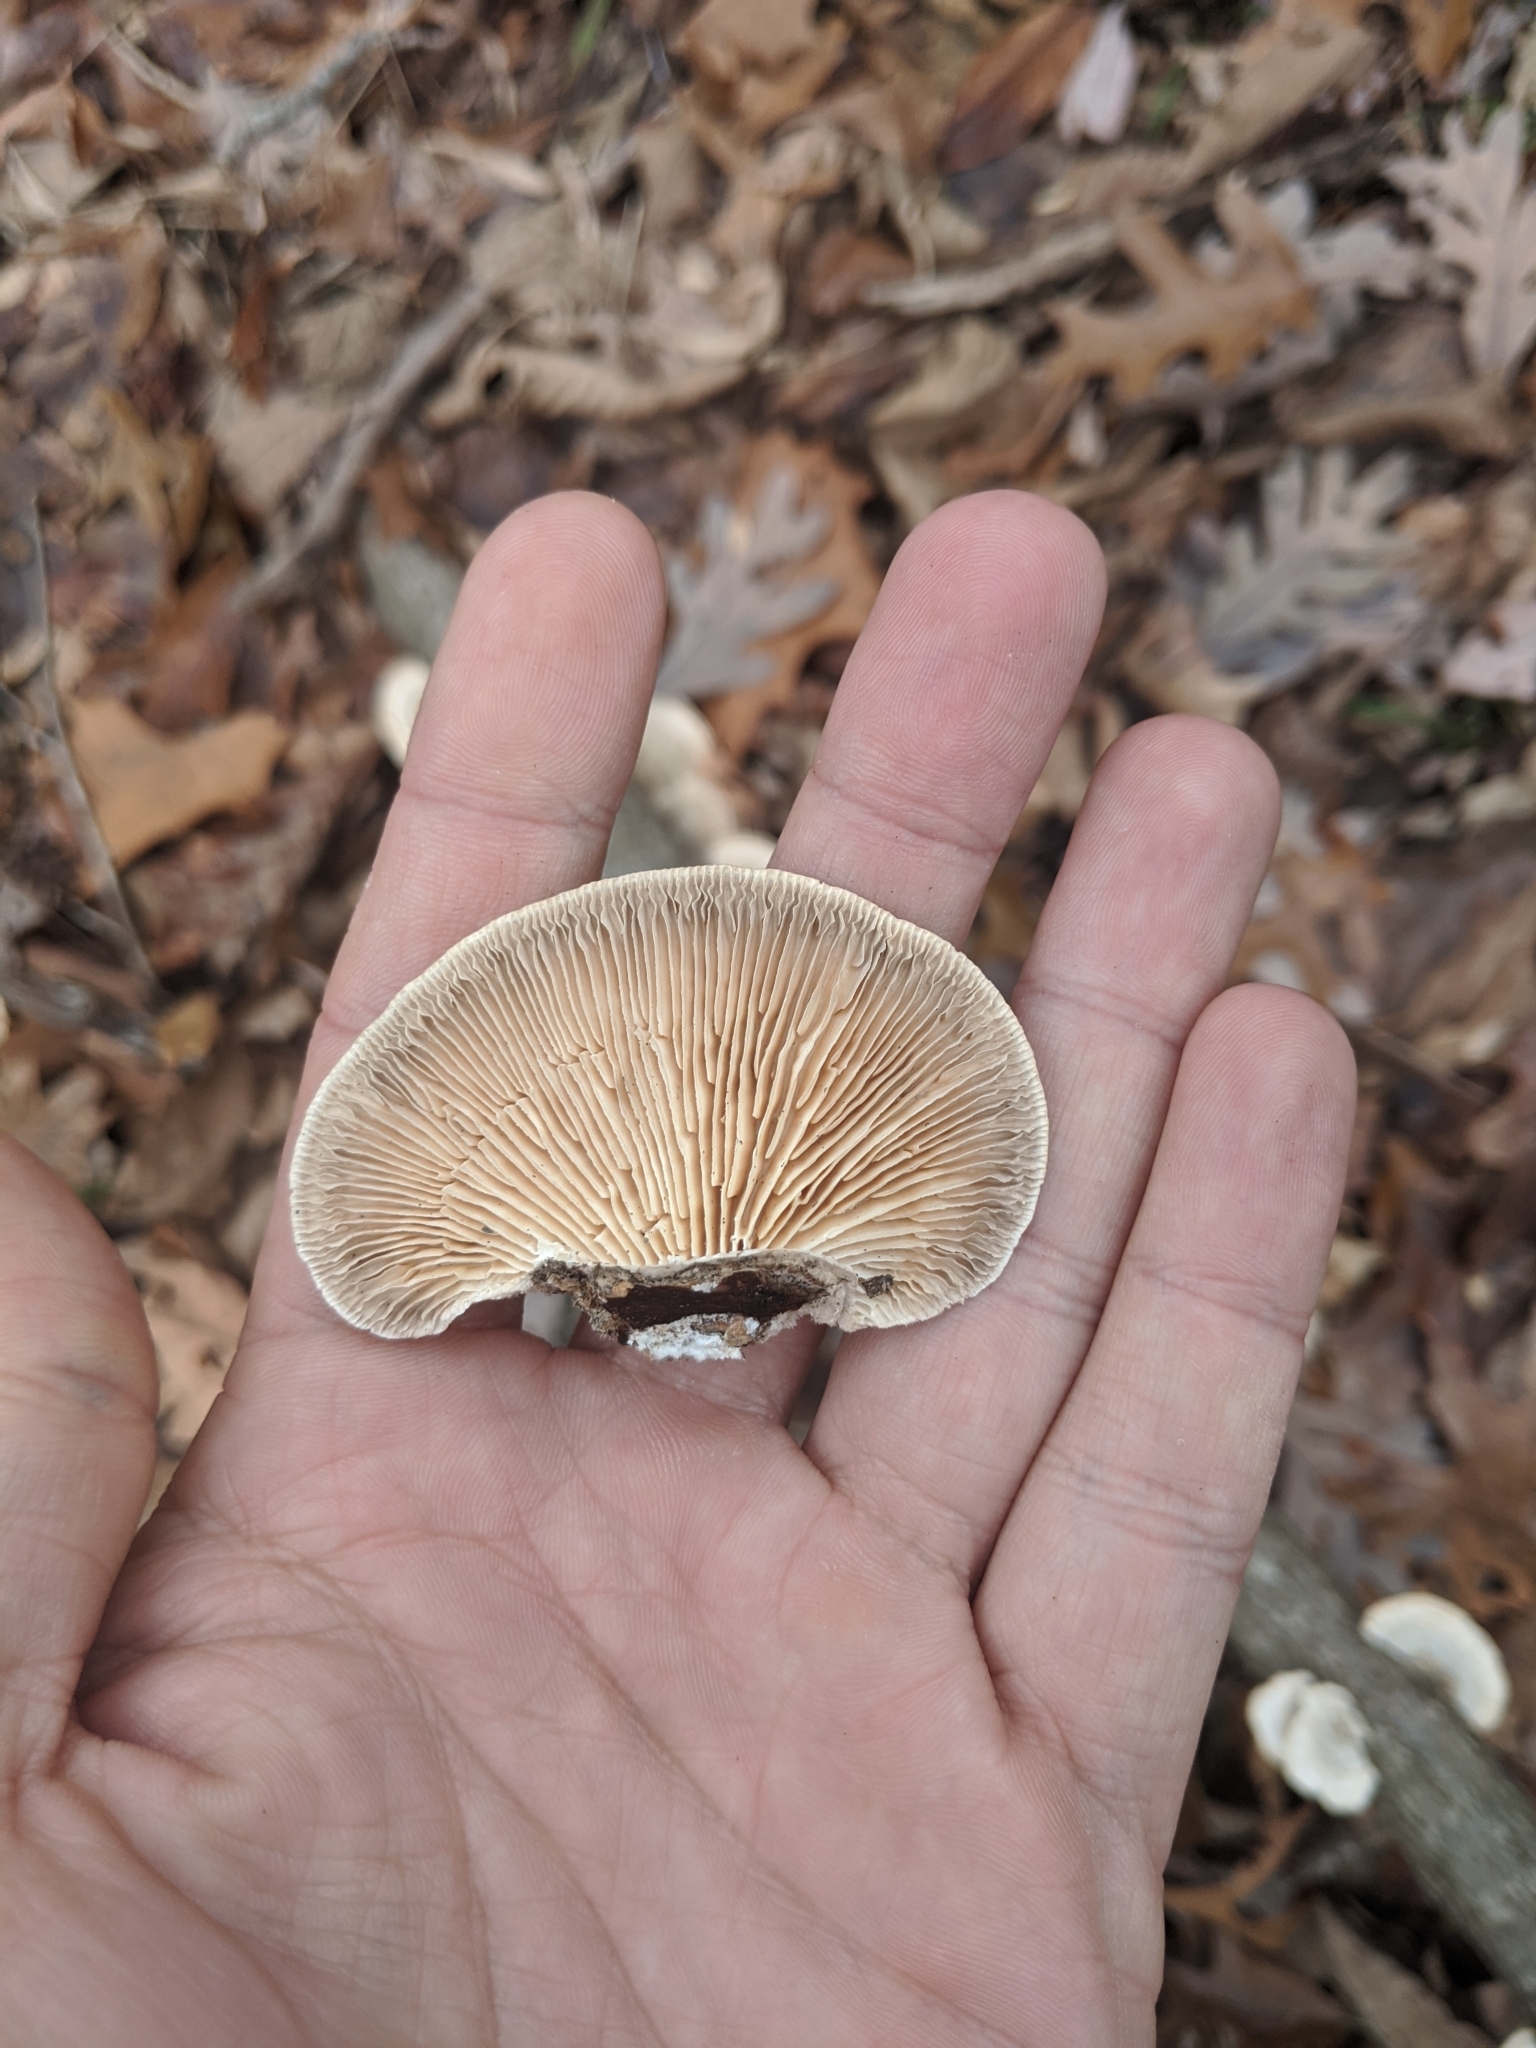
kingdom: Fungi
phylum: Basidiomycota
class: Agaricomycetes
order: Polyporales
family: Polyporaceae
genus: Lenzites
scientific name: Lenzites betulinus
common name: Birch mazegill
